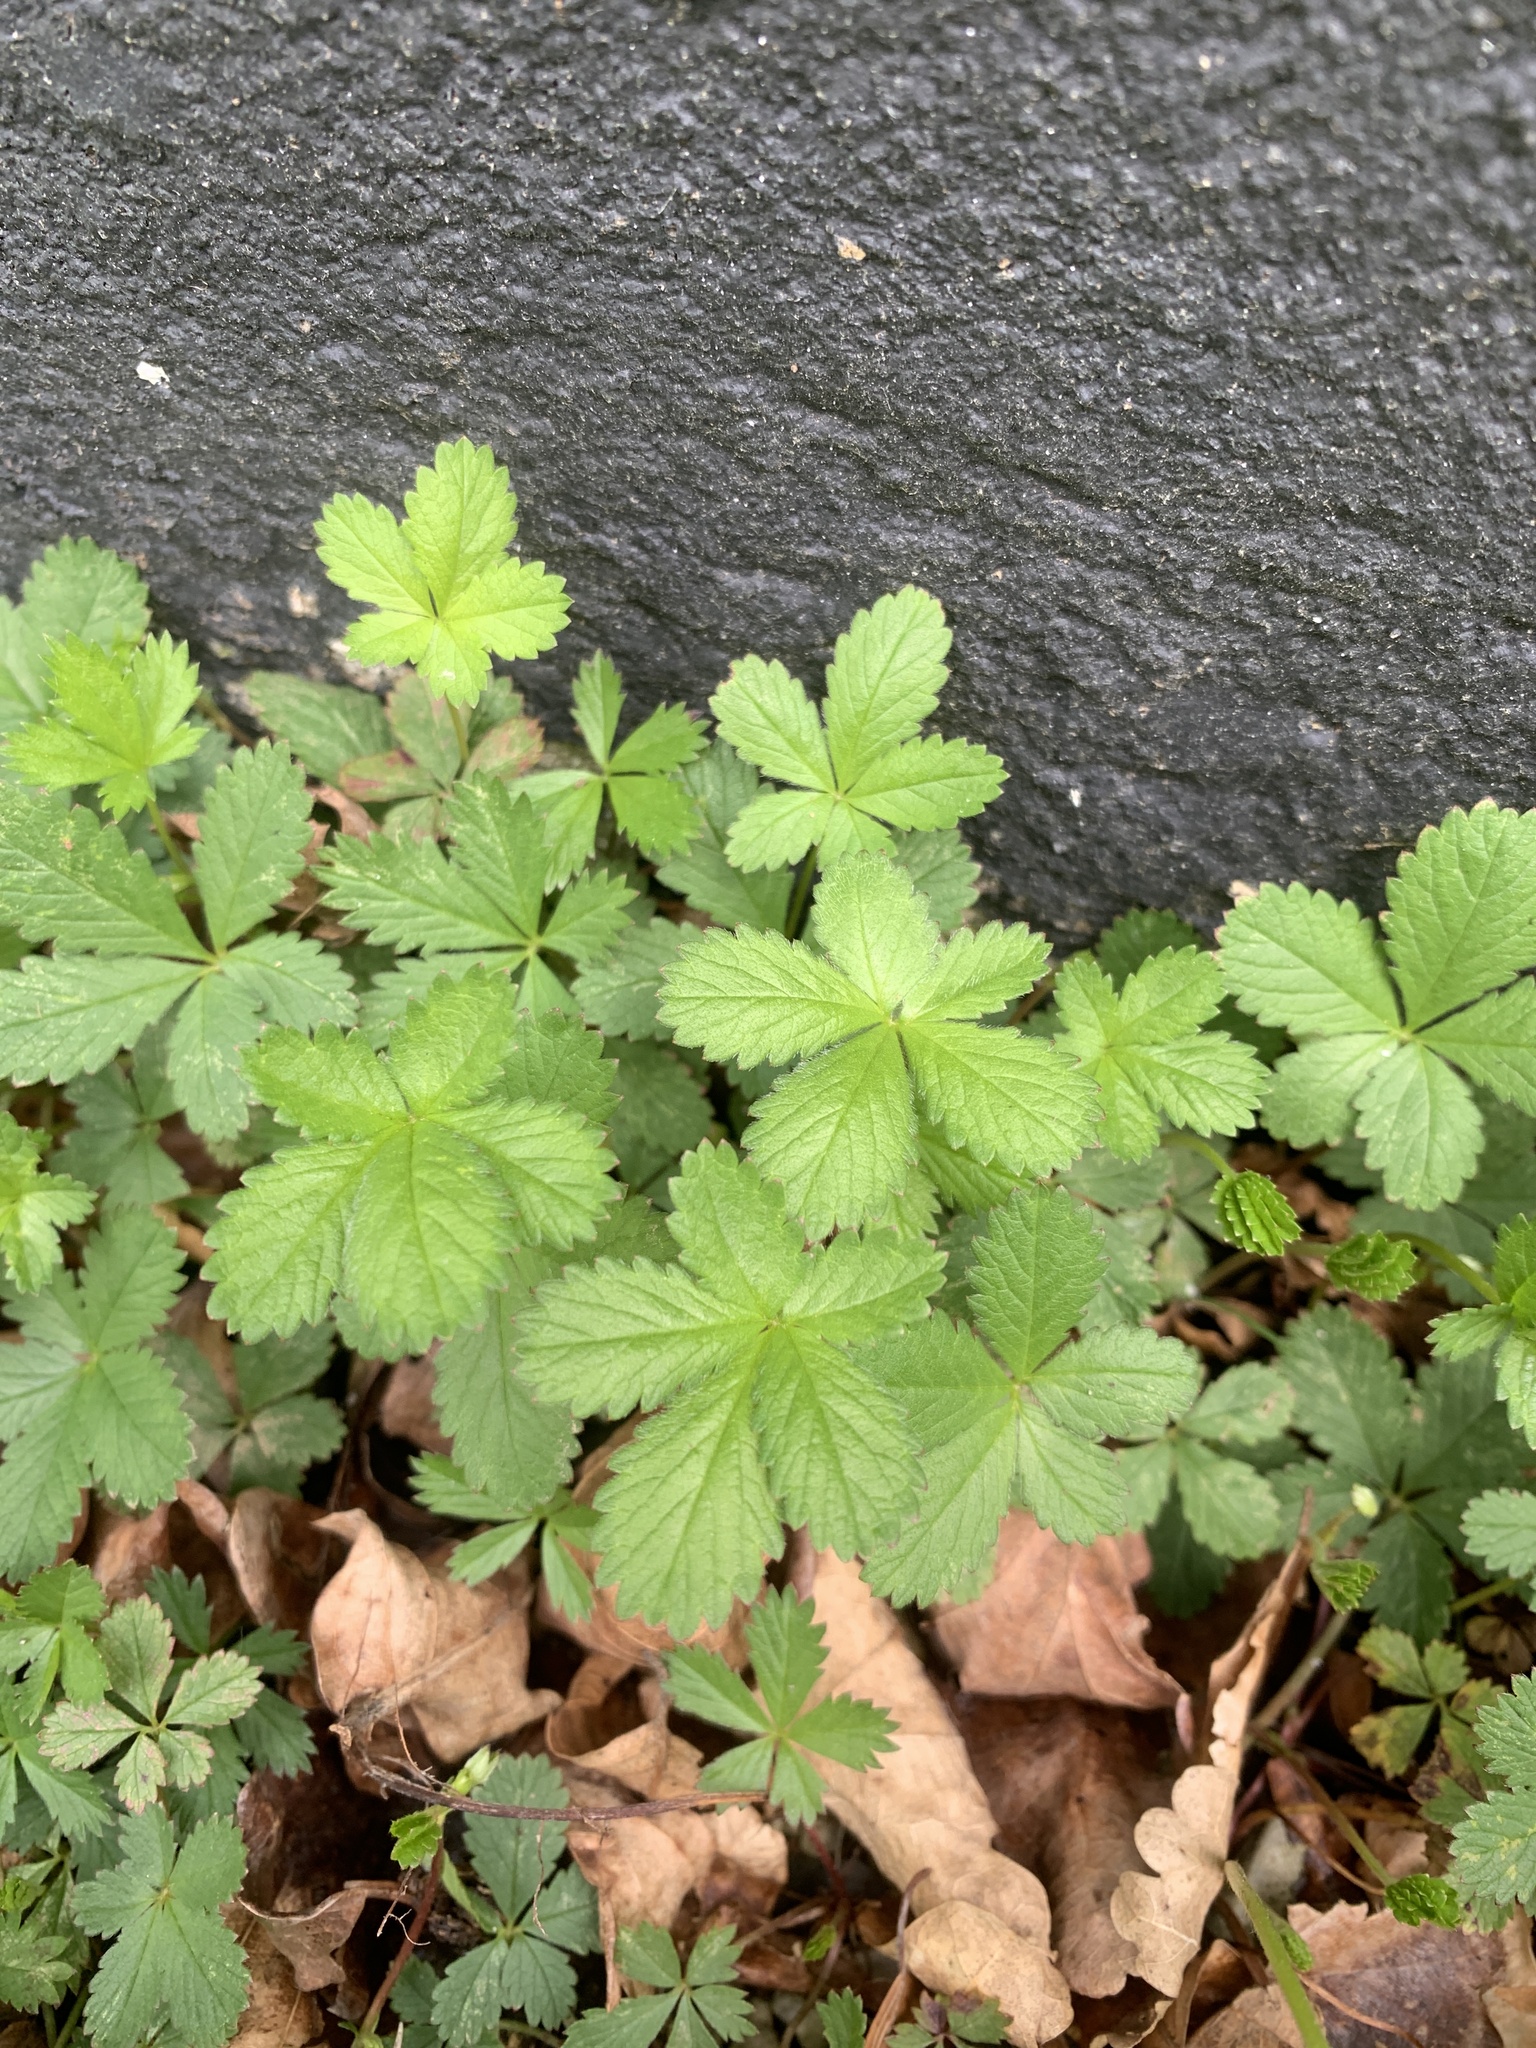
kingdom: Plantae
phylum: Tracheophyta
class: Magnoliopsida
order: Rosales
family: Rosaceae
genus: Potentilla
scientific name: Potentilla reptans
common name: Creeping cinquefoil
